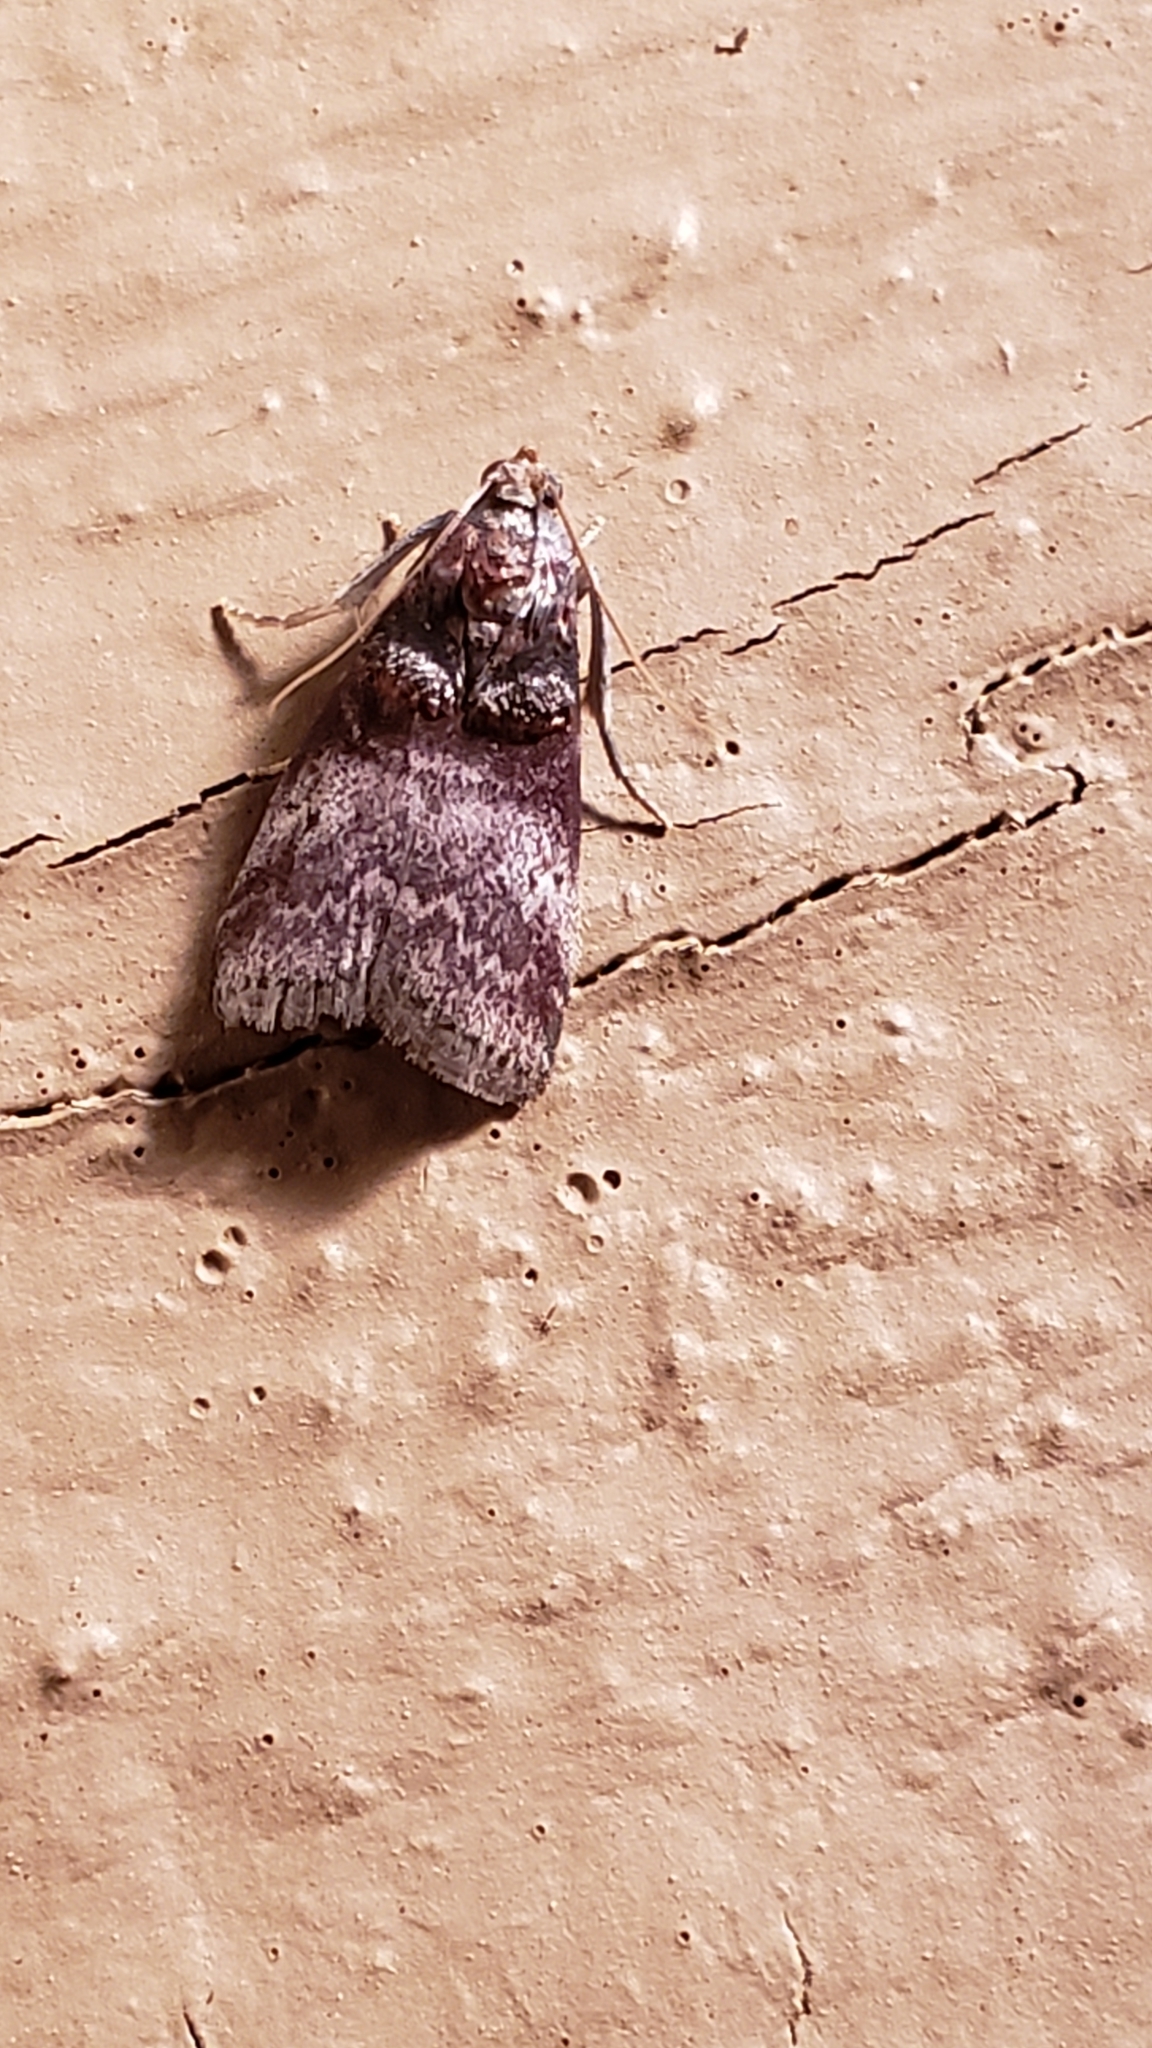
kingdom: Animalia
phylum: Arthropoda
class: Insecta
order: Lepidoptera
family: Pyralidae
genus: Acrobasis
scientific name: Acrobasis stigmella
